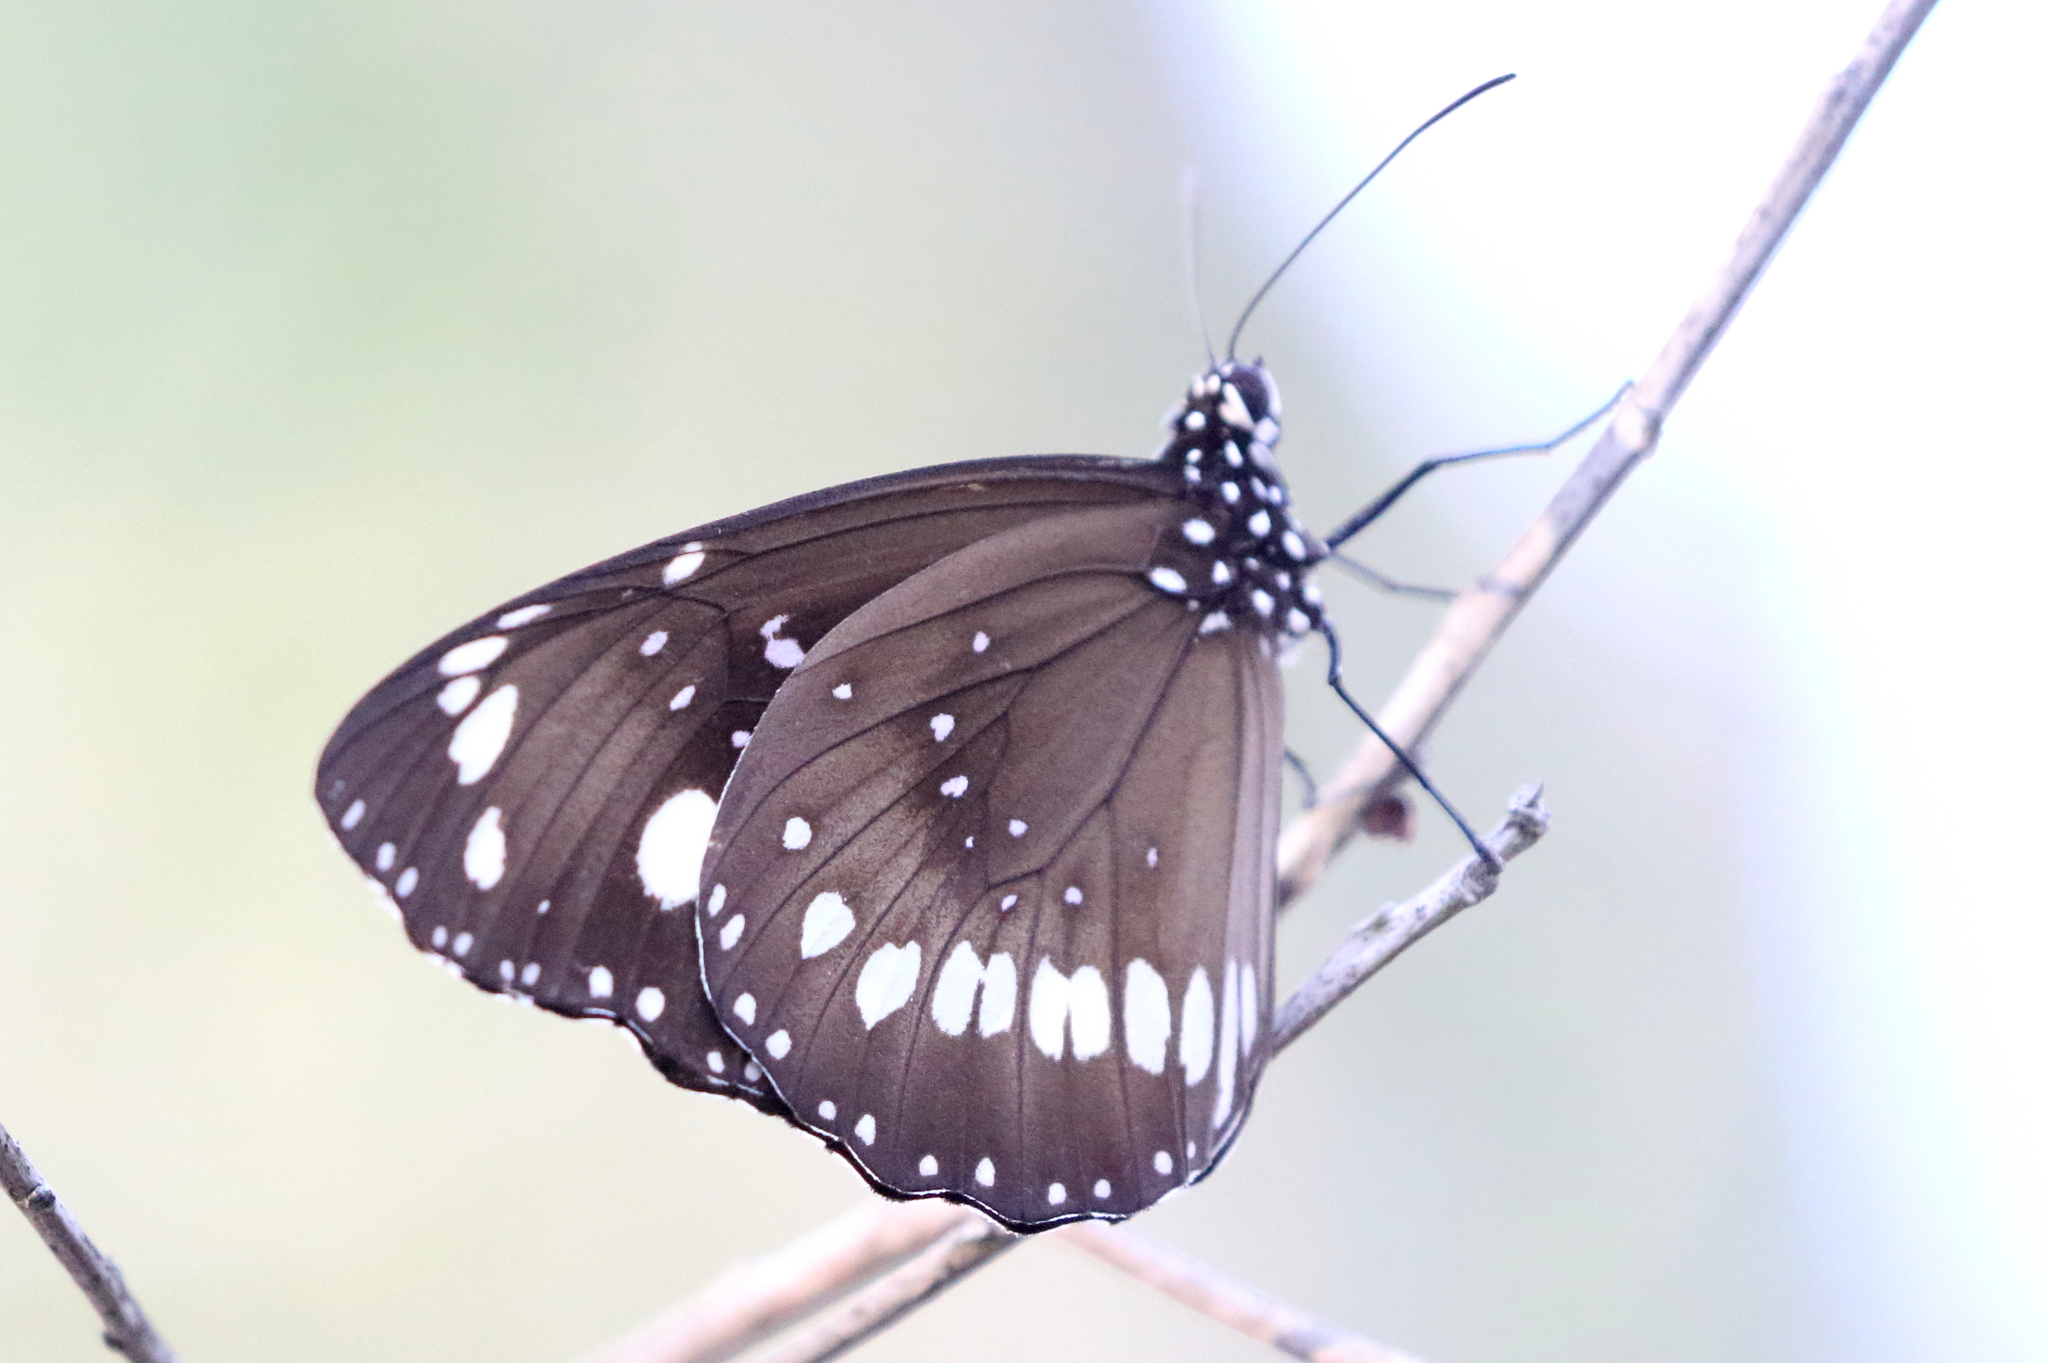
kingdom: Animalia
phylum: Arthropoda
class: Insecta
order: Lepidoptera
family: Nymphalidae
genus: Euploea
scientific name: Euploea core
